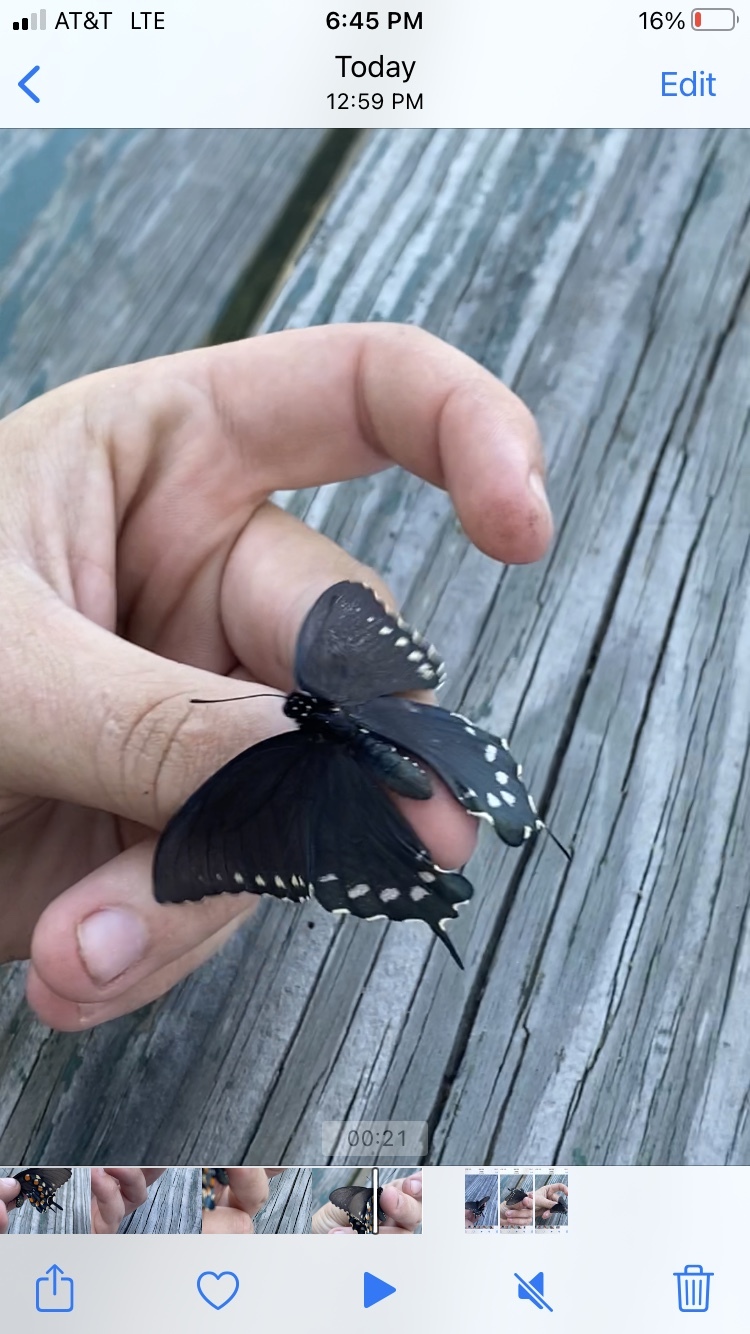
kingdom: Animalia
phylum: Arthropoda
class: Insecta
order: Lepidoptera
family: Papilionidae
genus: Battus
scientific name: Battus philenor
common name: Pipevine swallowtail
